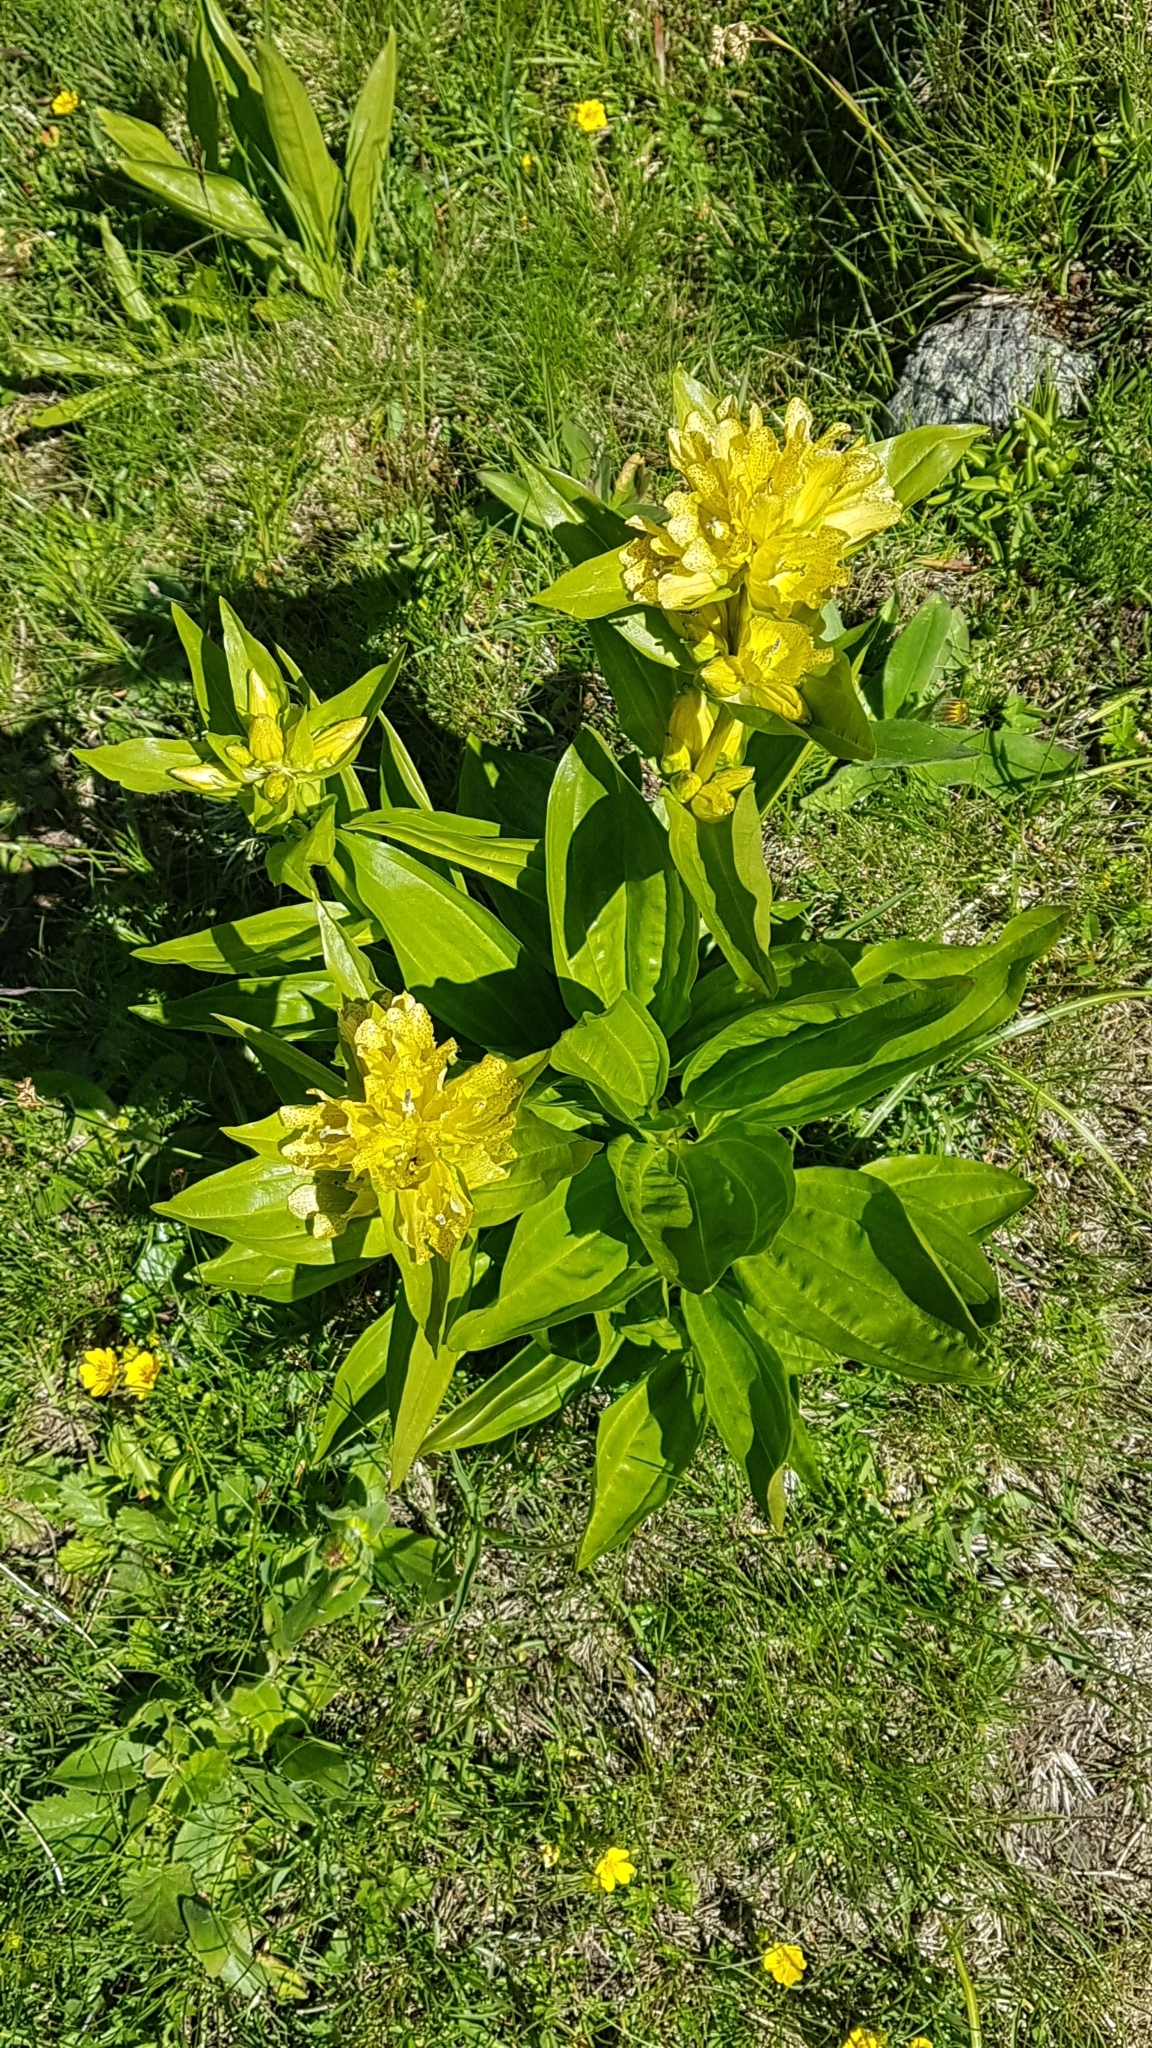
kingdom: Plantae
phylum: Tracheophyta
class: Magnoliopsida
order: Gentianales
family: Gentianaceae
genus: Gentiana
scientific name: Gentiana punctata
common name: Spotted gentian
